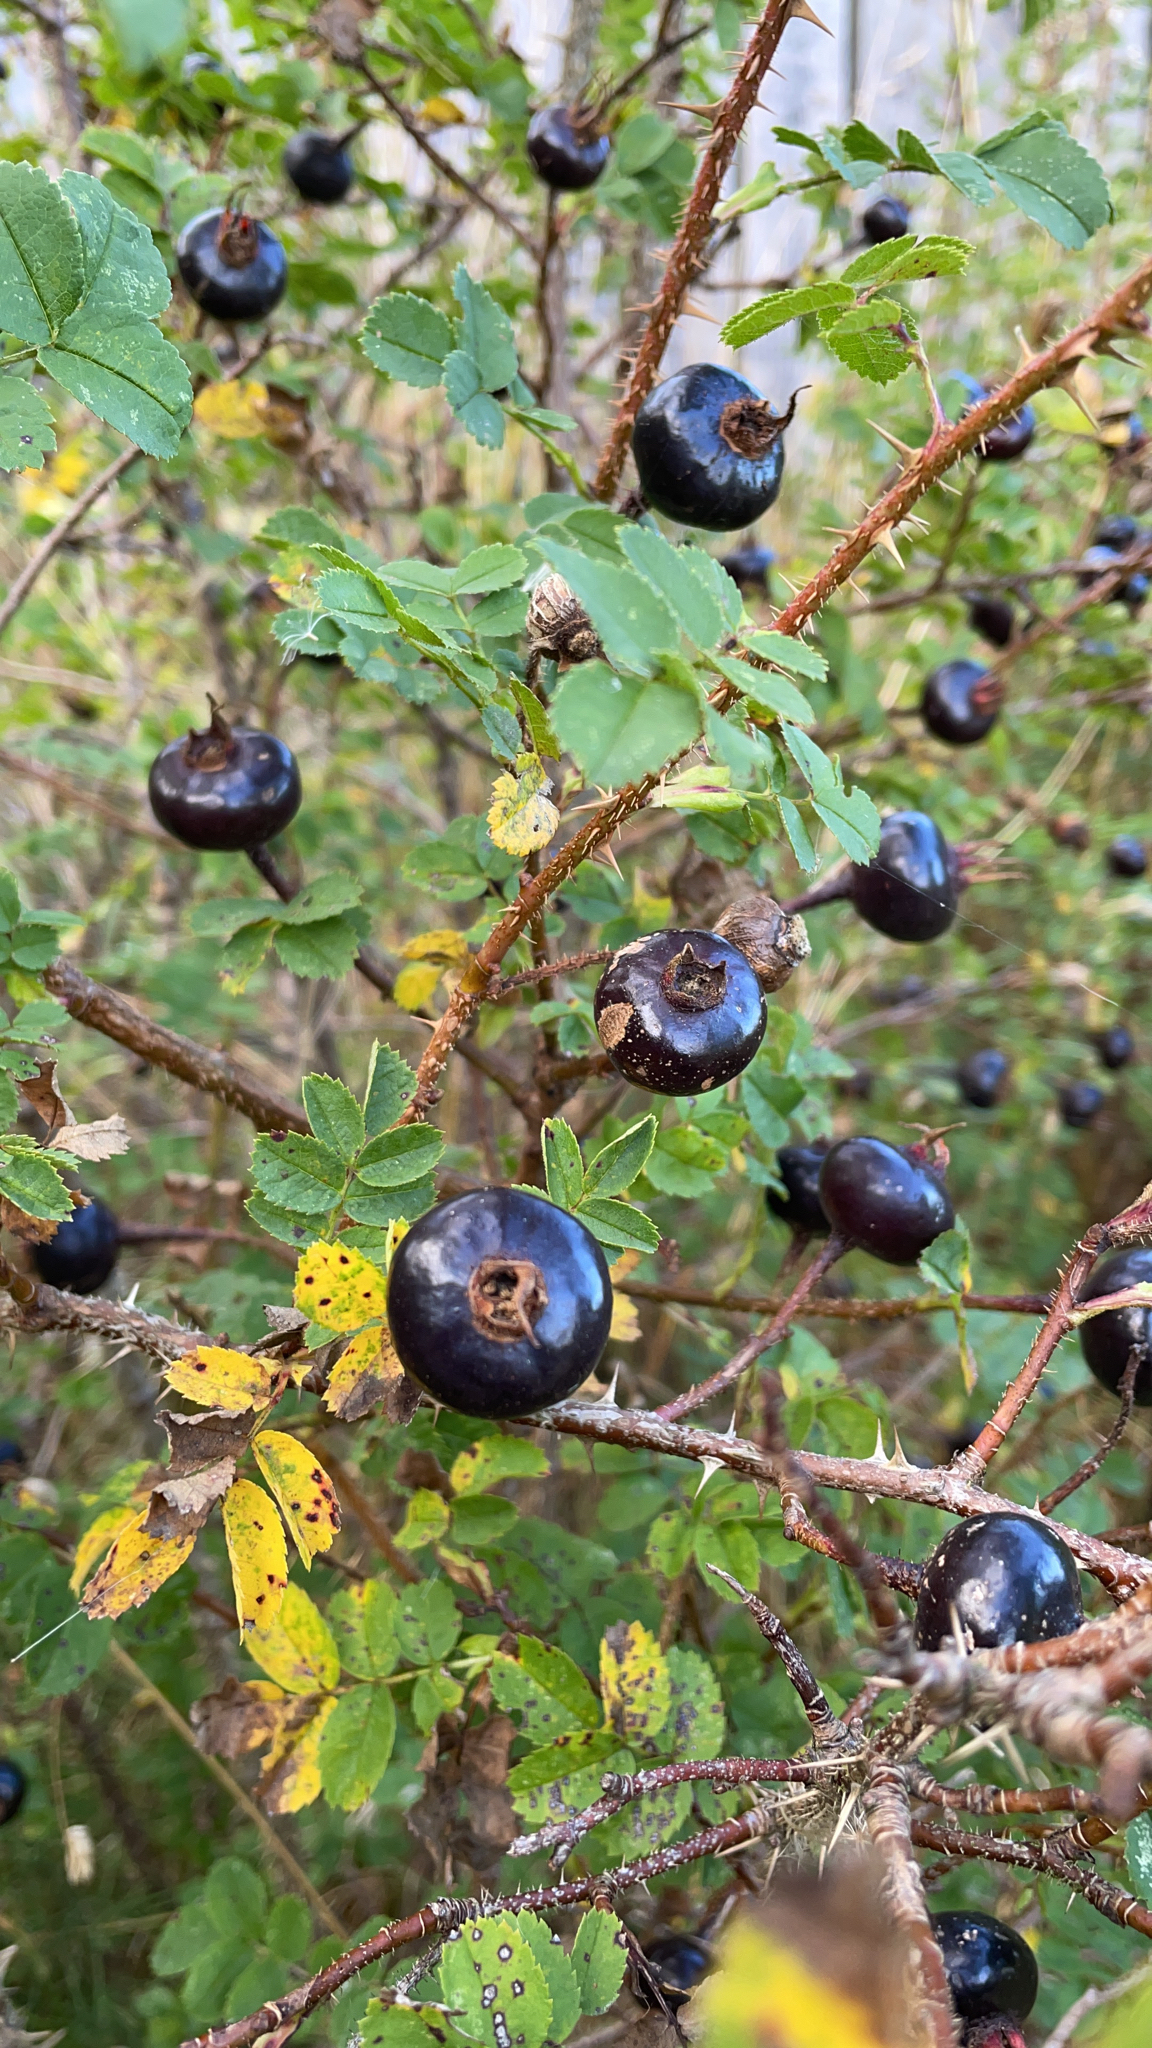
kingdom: Plantae
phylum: Tracheophyta
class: Magnoliopsida
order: Rosales
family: Rosaceae
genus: Rosa
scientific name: Rosa spinosissima
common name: Burnet rose
